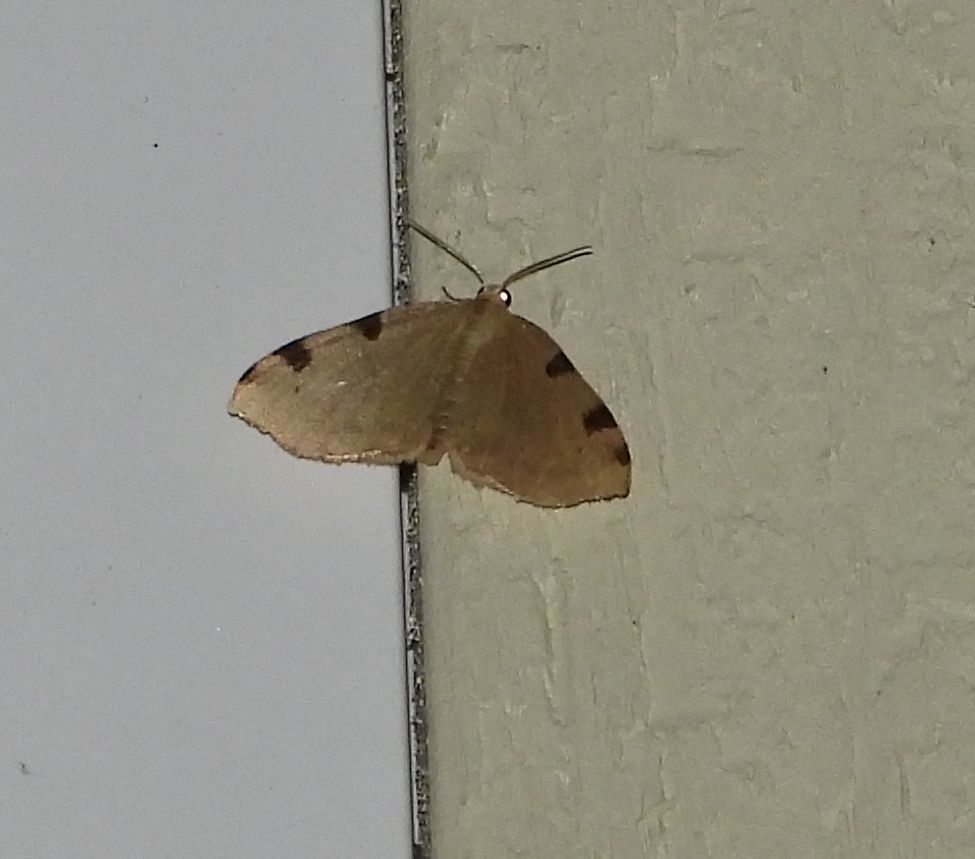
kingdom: Animalia
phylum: Arthropoda
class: Insecta
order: Lepidoptera
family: Geometridae
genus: Heterophleps
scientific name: Heterophleps triguttaria
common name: Three-spotted fillip
